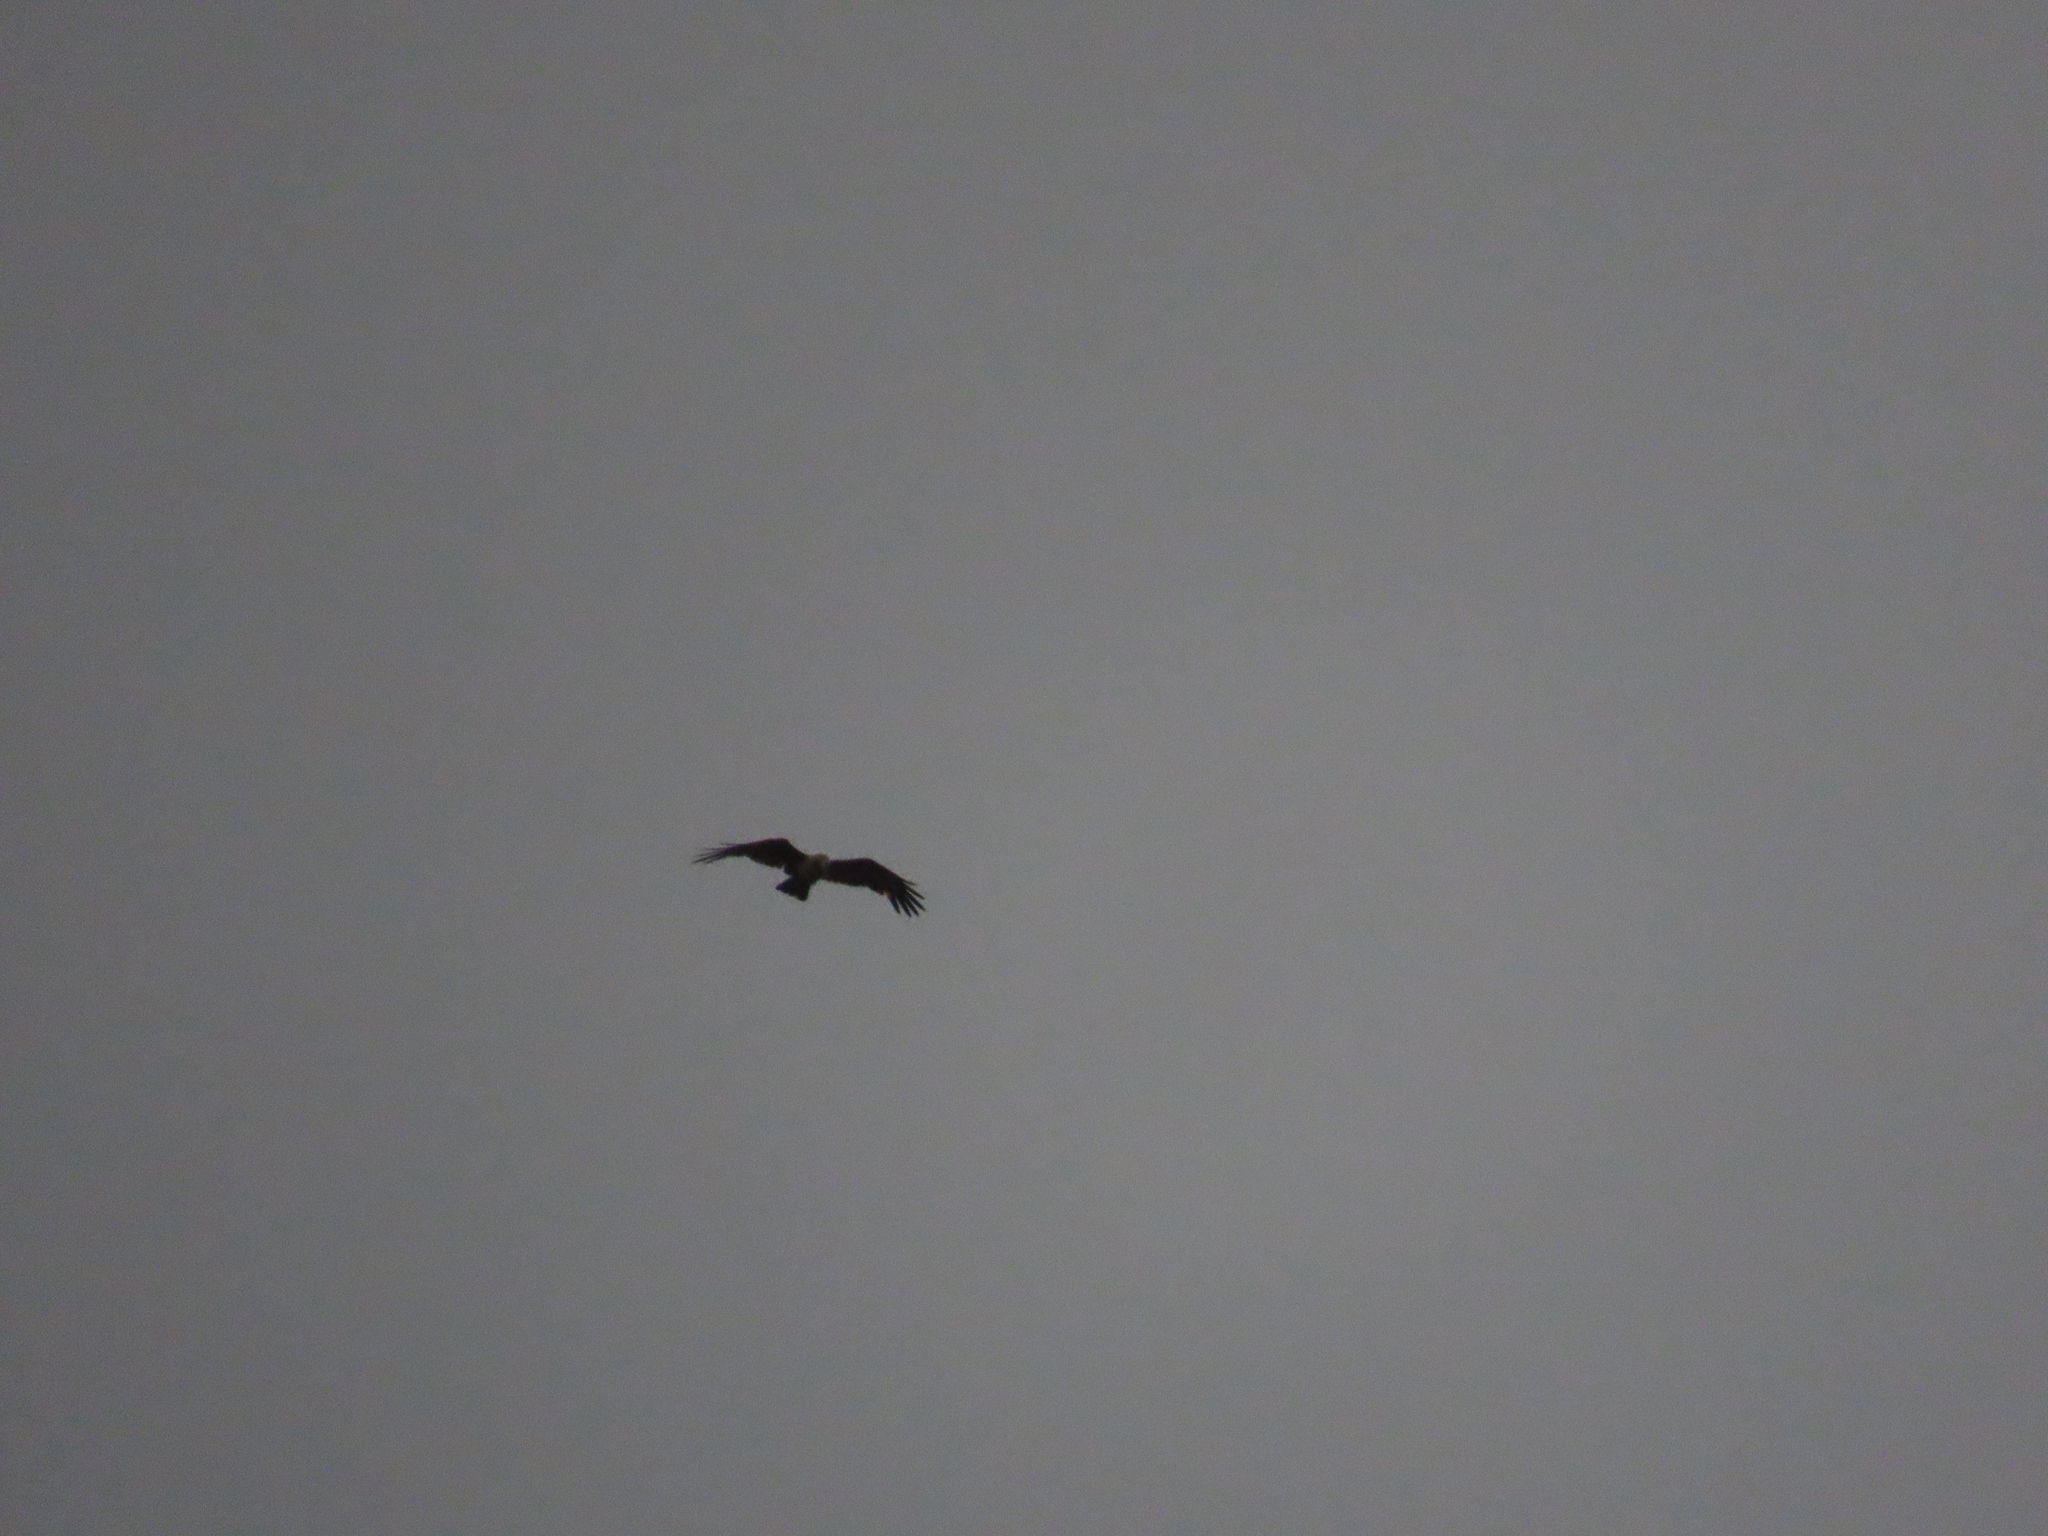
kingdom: Animalia
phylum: Chordata
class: Aves
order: Accipitriformes
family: Accipitridae
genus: Haliastur
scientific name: Haliastur indus
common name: Brahminy kite
